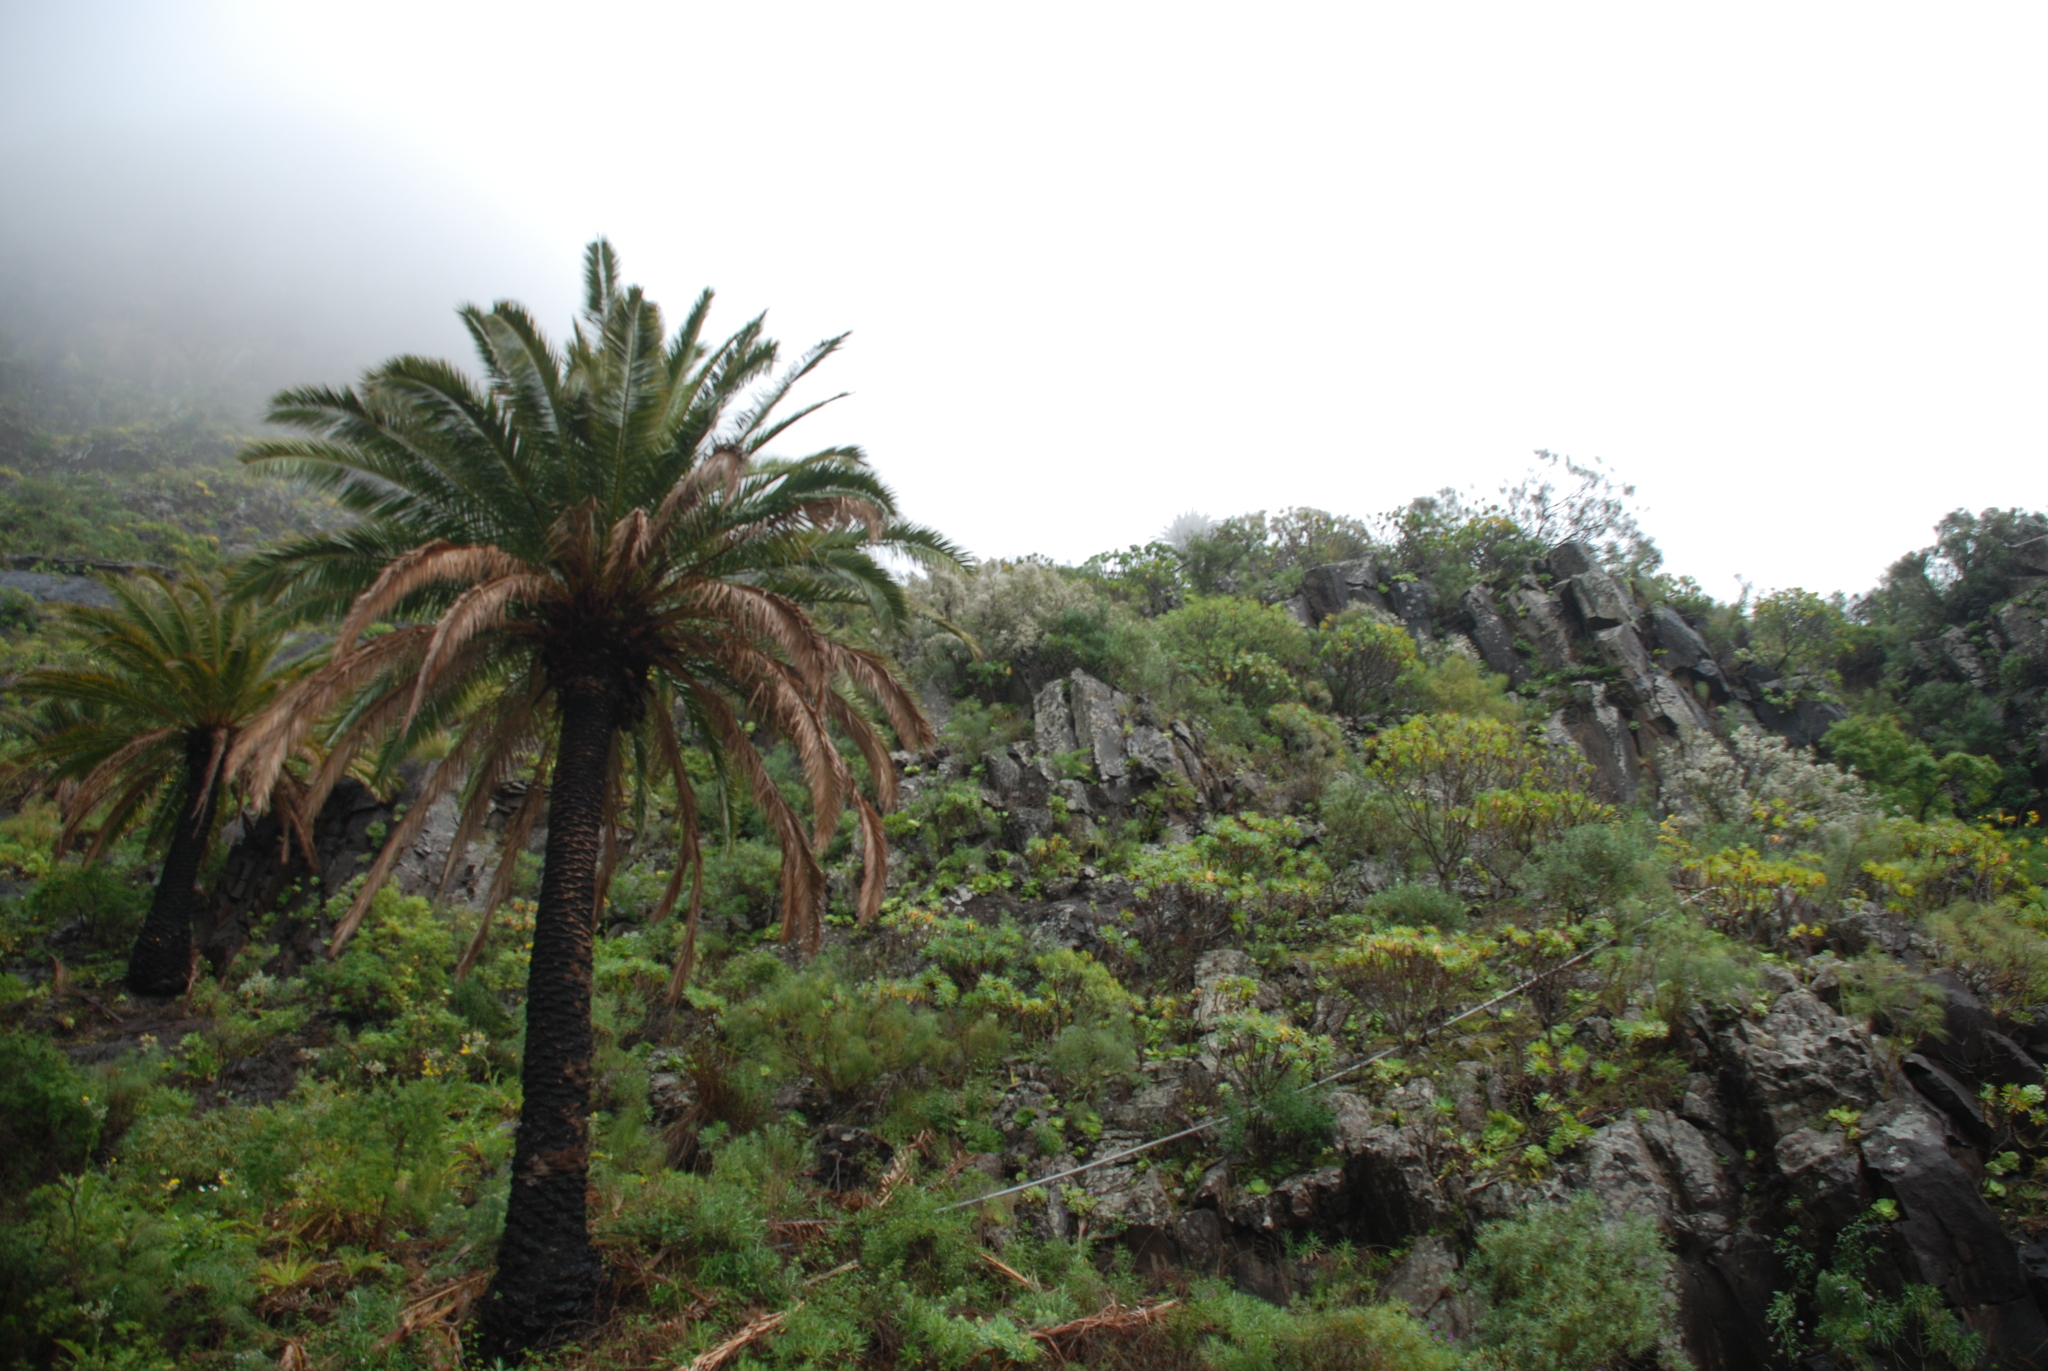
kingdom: Plantae
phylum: Tracheophyta
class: Liliopsida
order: Arecales
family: Arecaceae
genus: Phoenix
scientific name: Phoenix canariensis
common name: Canary island date palm
